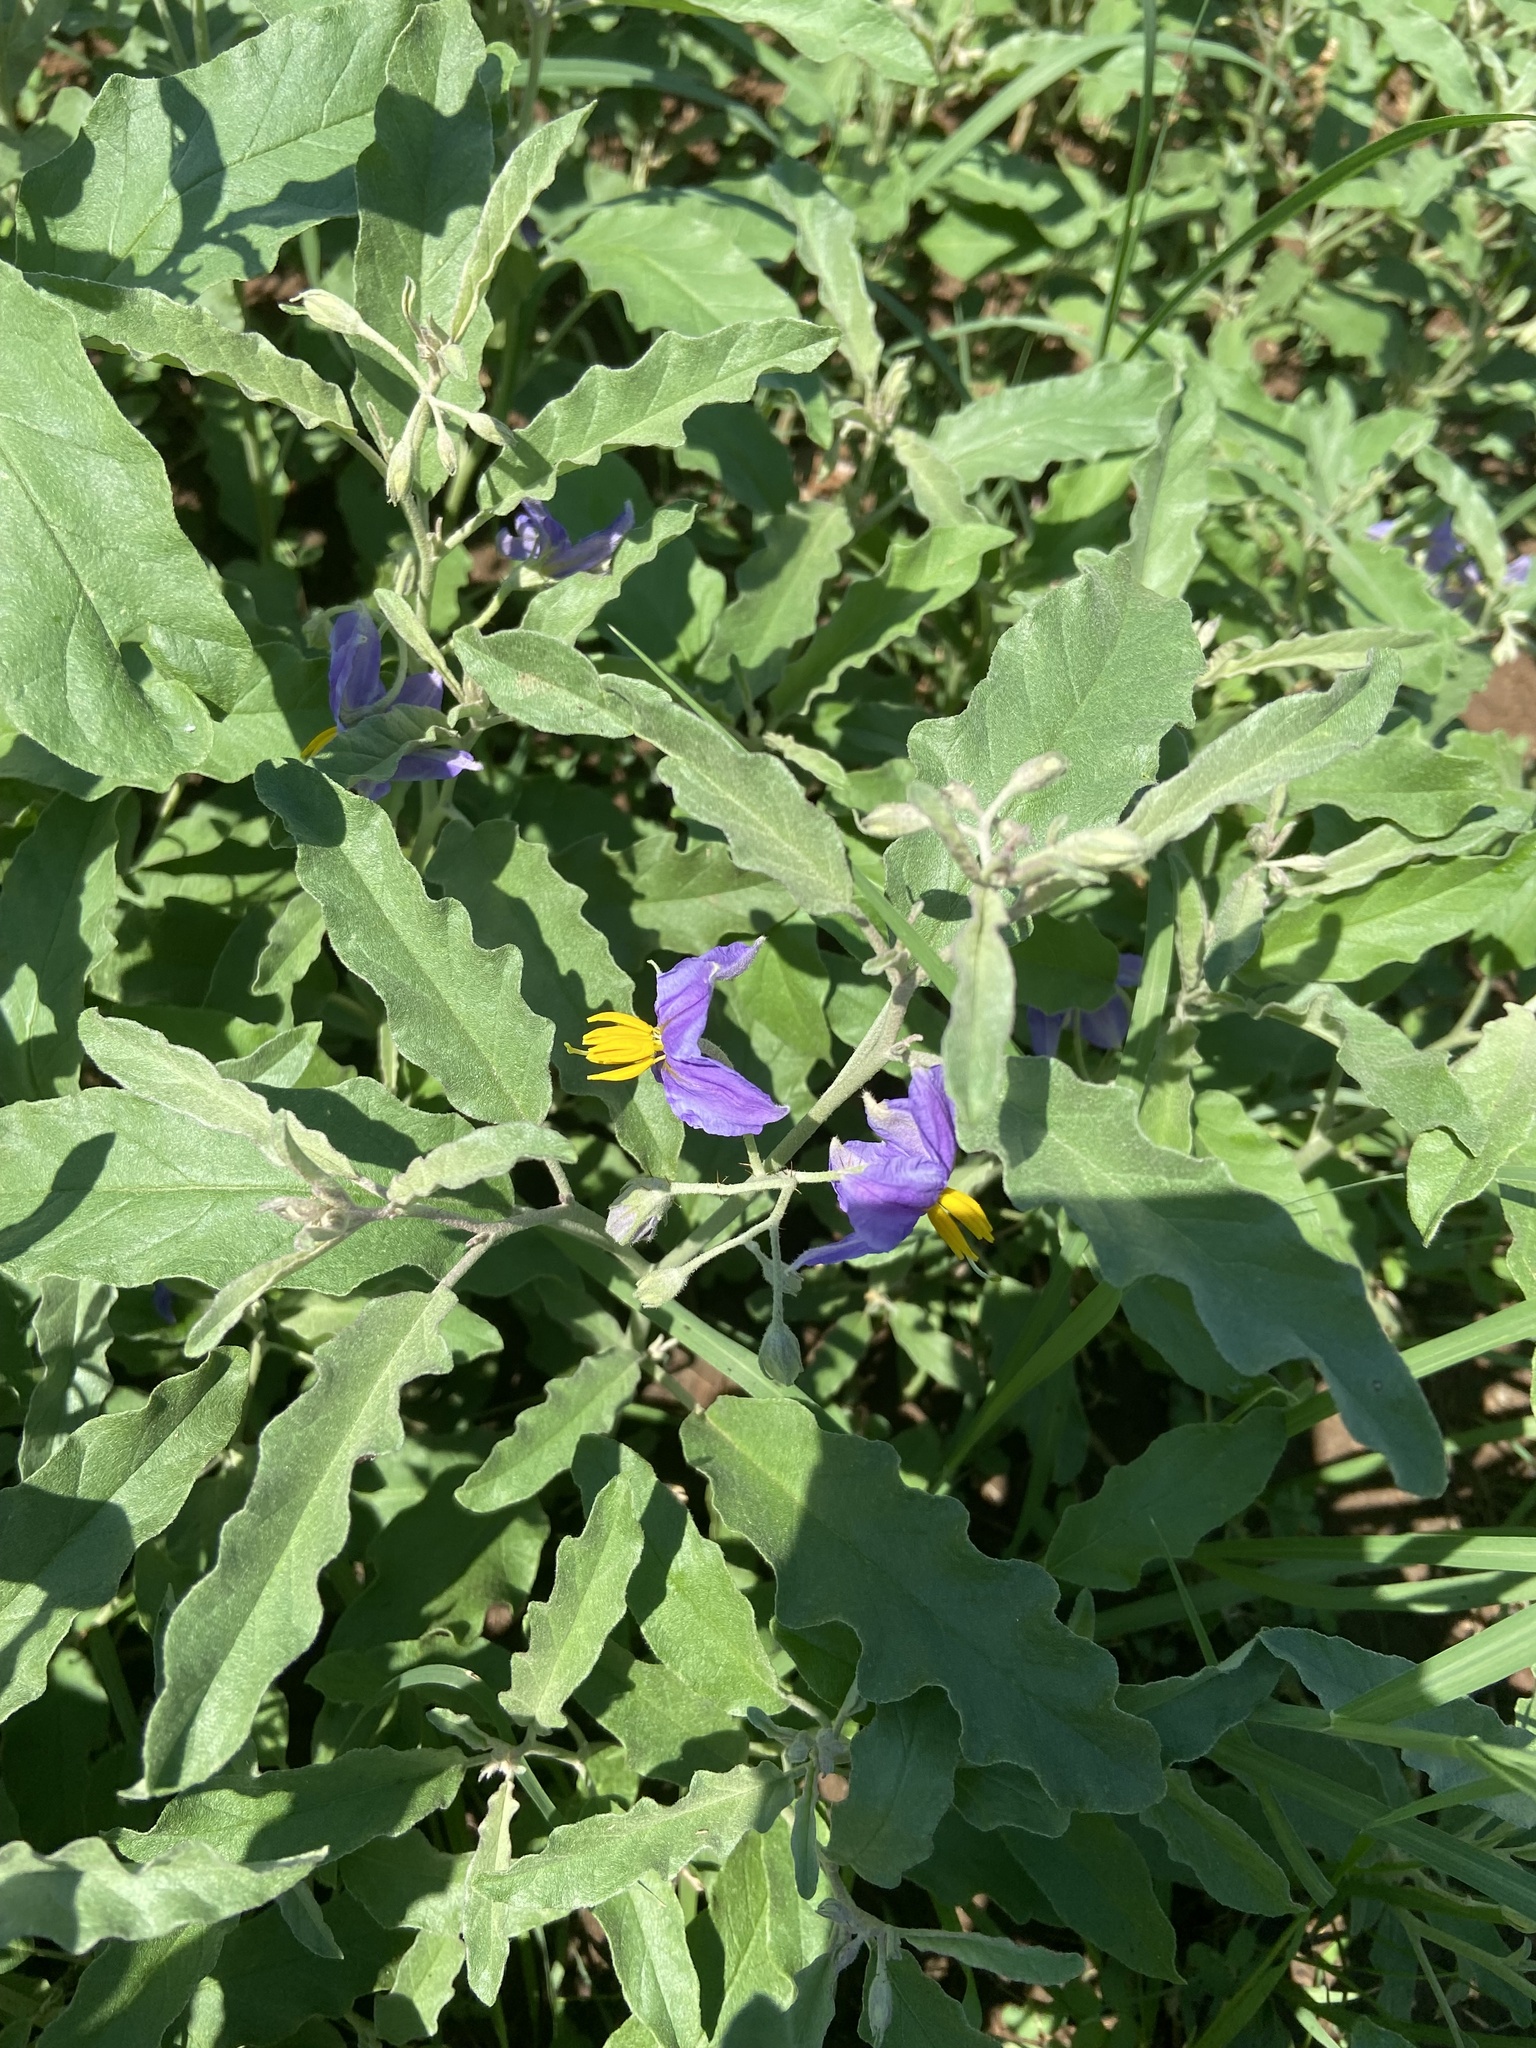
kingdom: Plantae
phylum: Tracheophyta
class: Magnoliopsida
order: Solanales
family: Solanaceae
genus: Solanum
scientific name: Solanum elaeagnifolium
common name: Silverleaf nightshade
